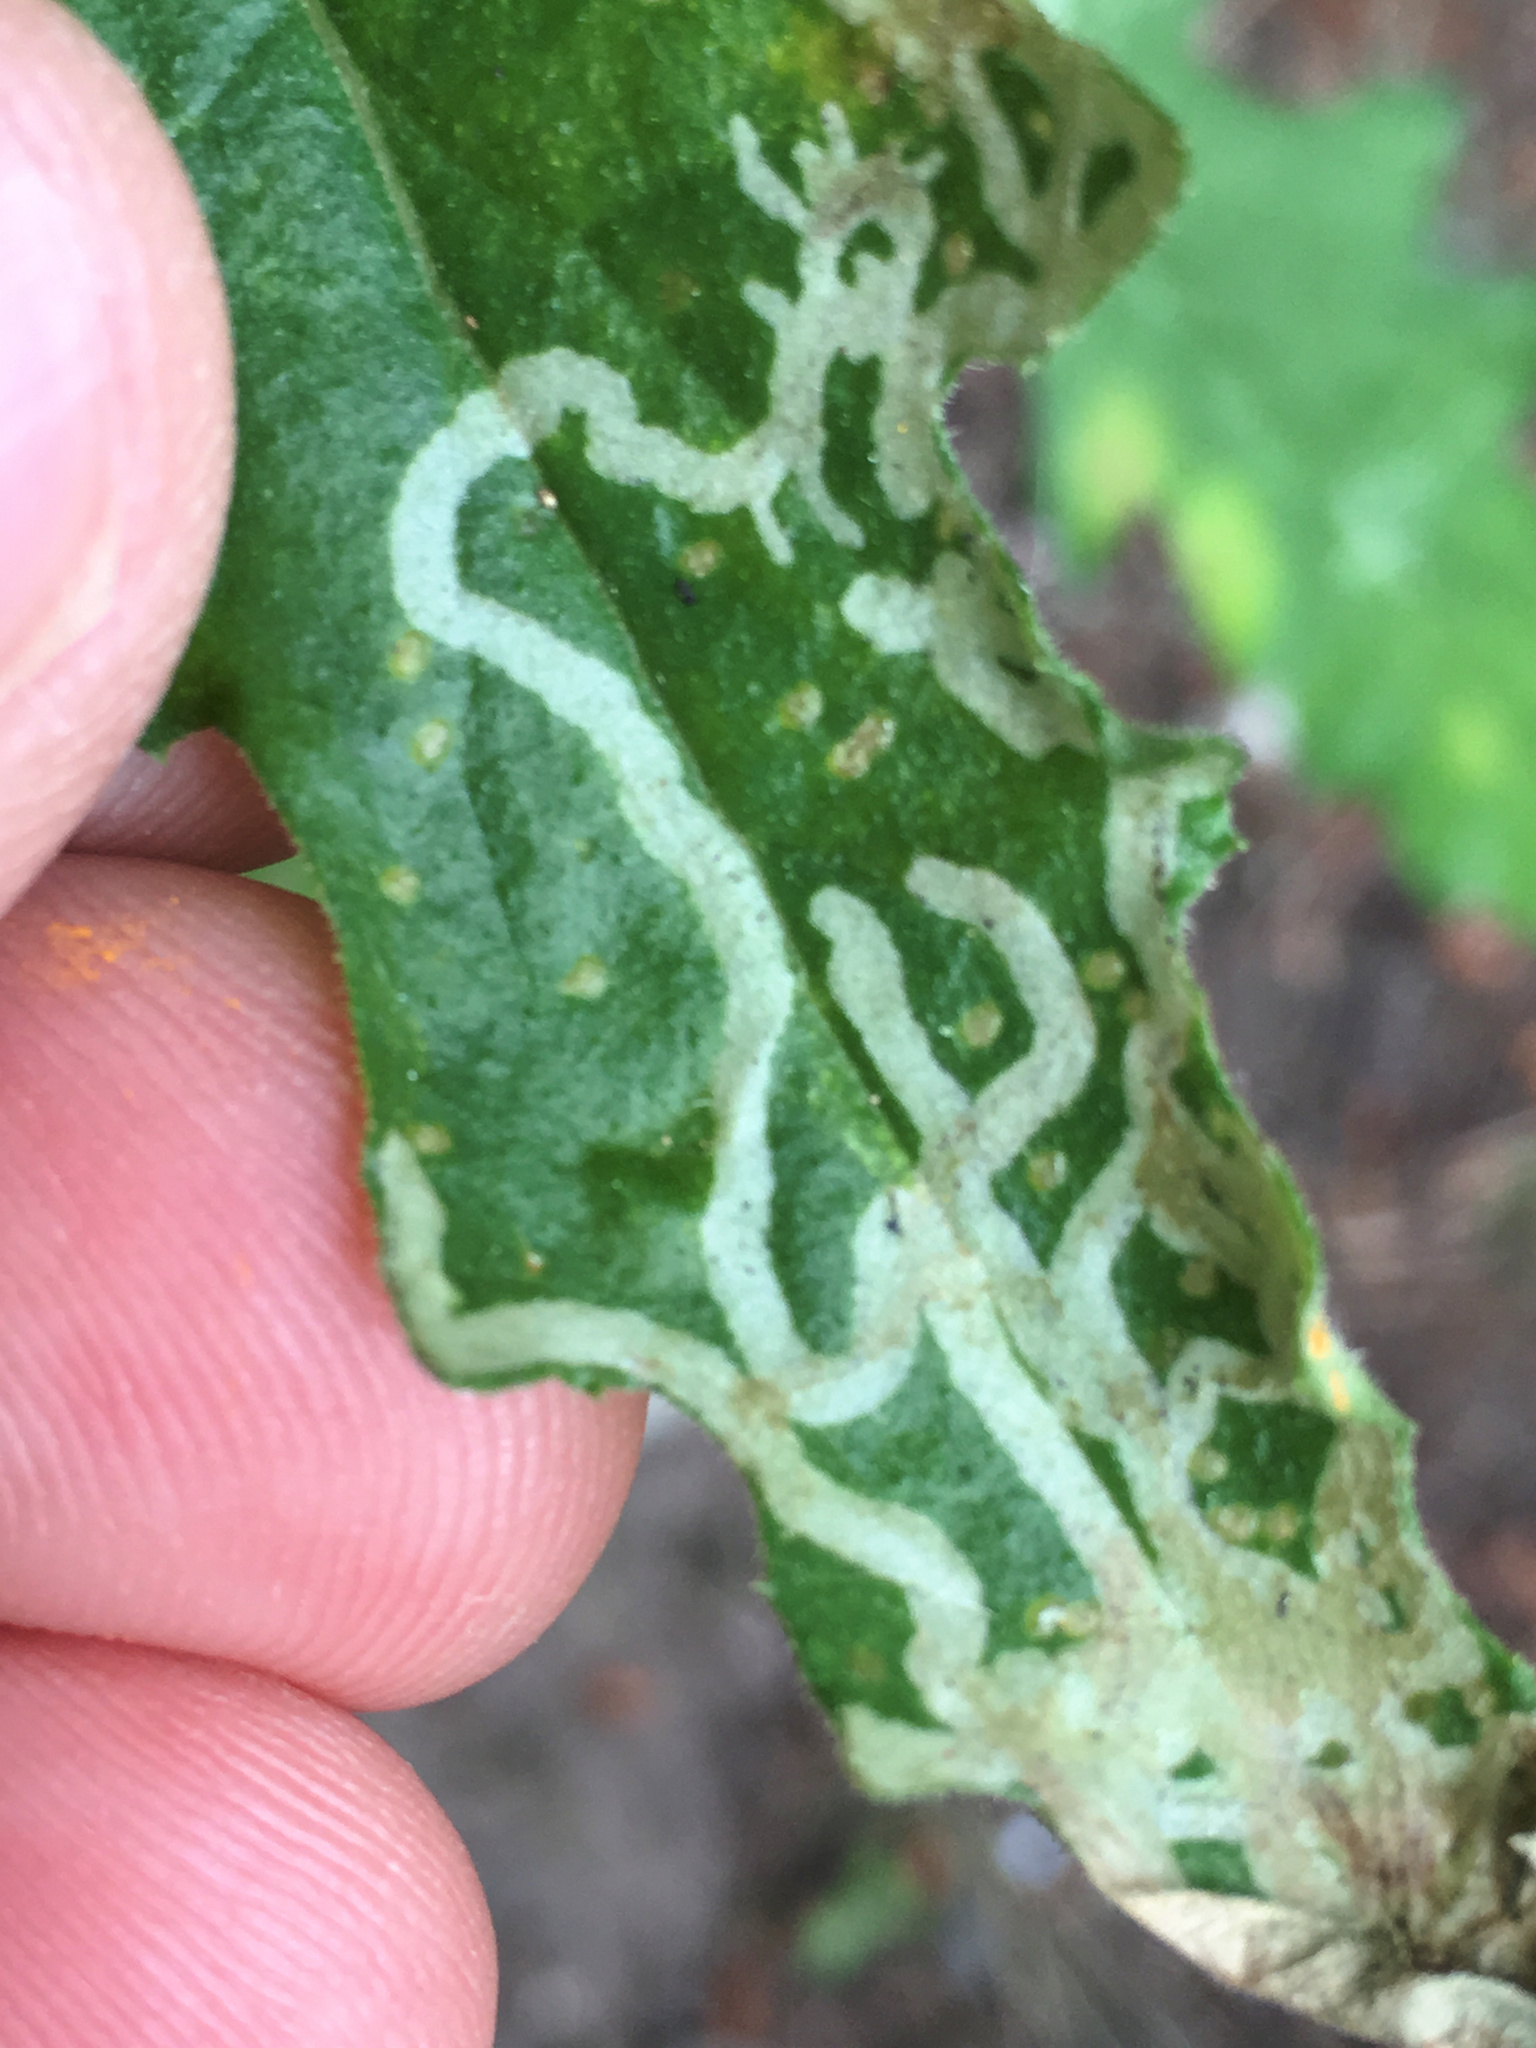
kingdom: Animalia
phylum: Arthropoda
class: Insecta
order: Diptera
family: Agromyzidae
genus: Phytomyza
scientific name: Phytomyza syngenesiae
